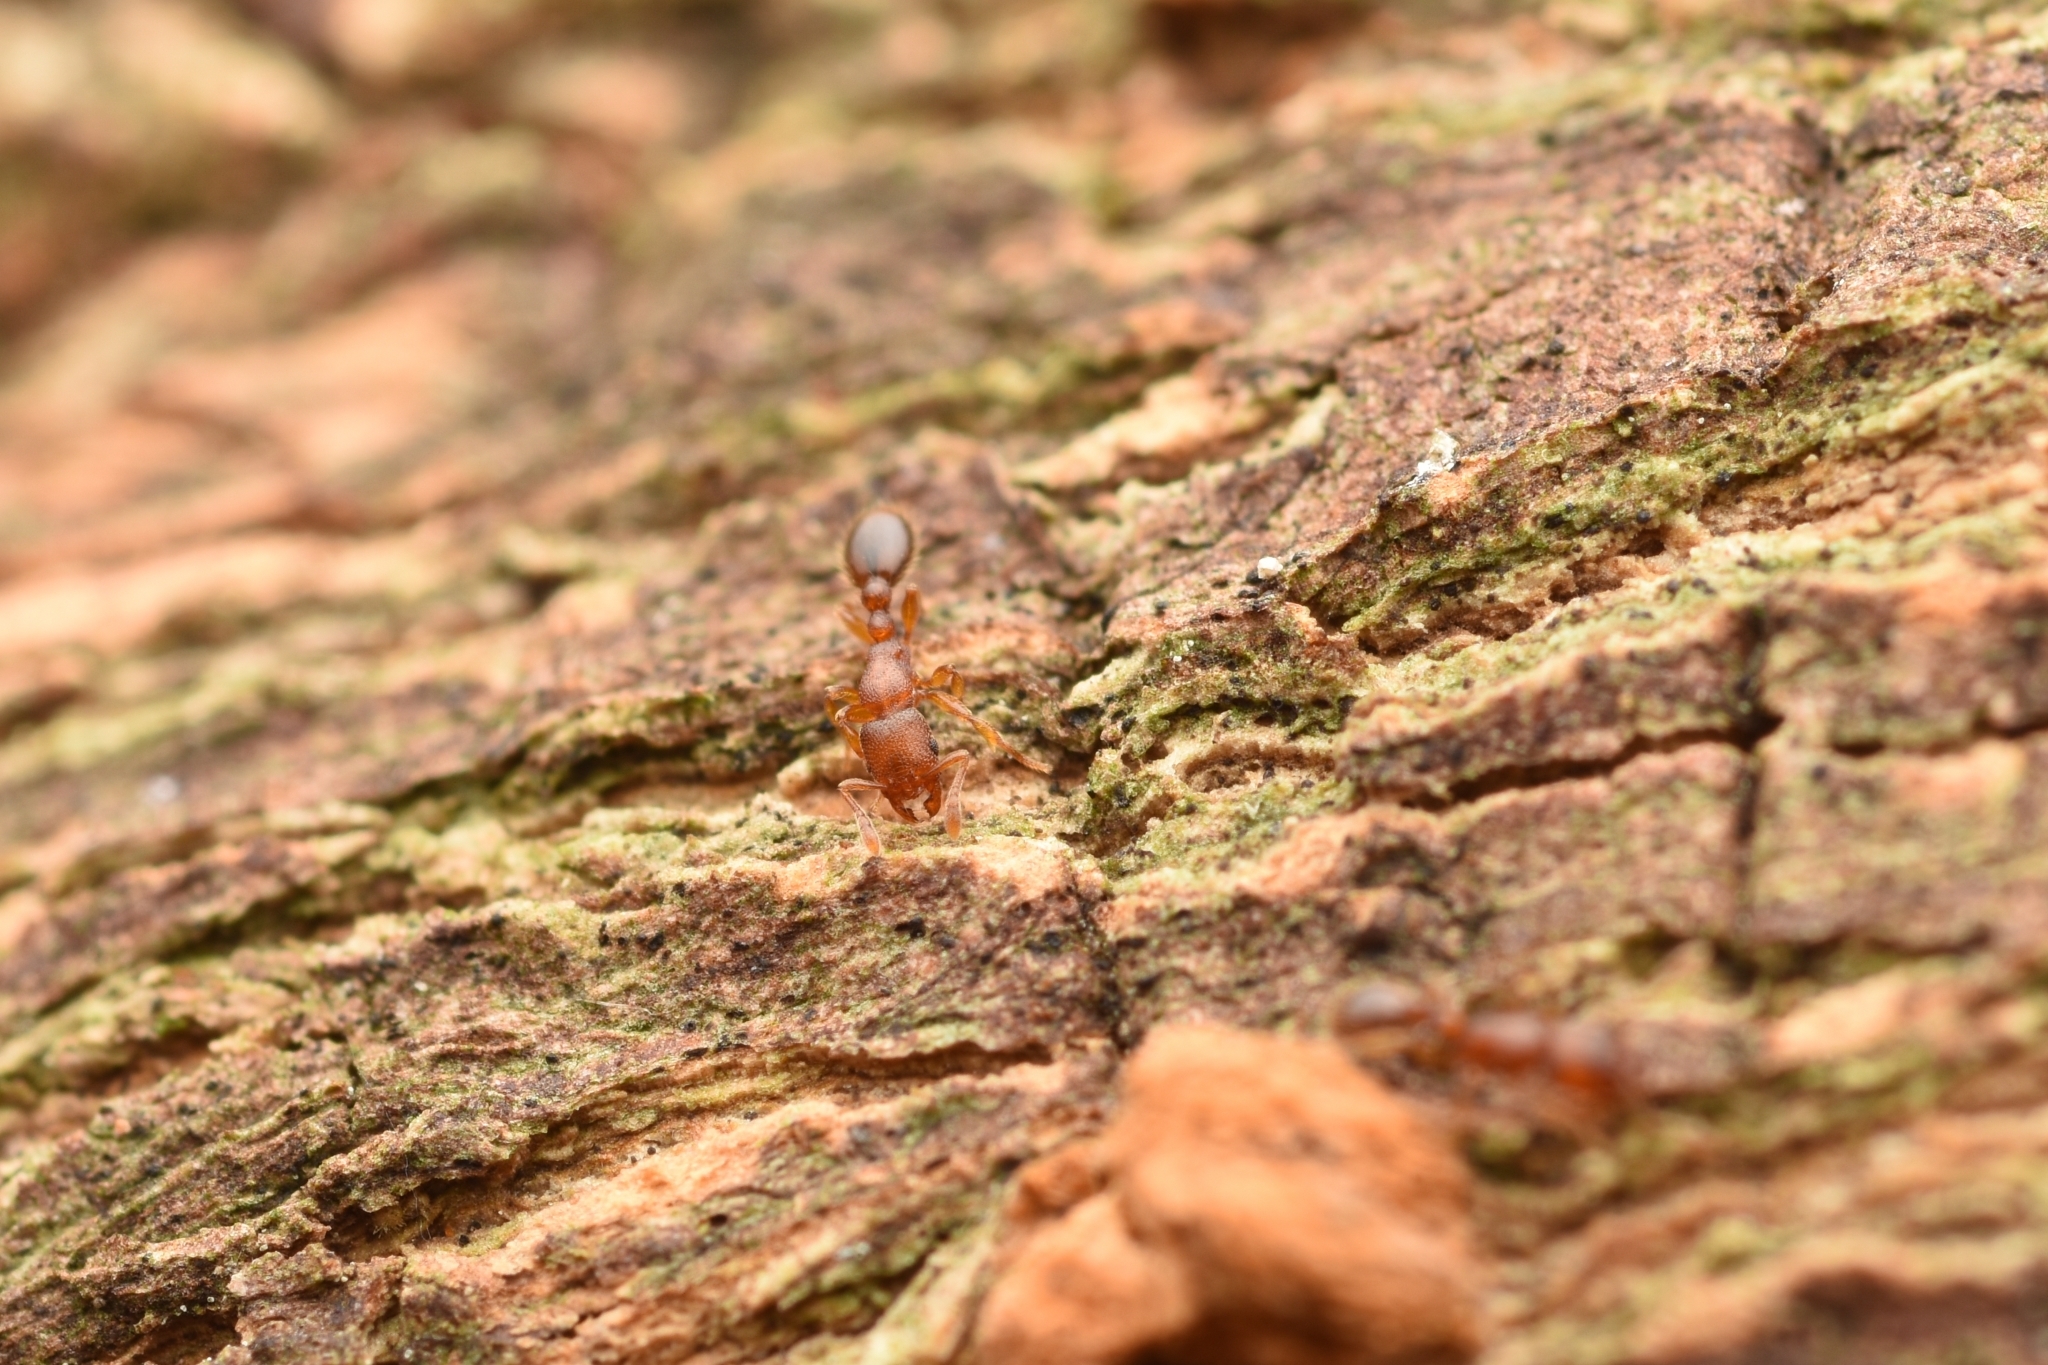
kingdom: Animalia
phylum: Arthropoda
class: Insecta
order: Hymenoptera
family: Formicidae
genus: Vollenhovia
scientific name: Vollenhovia emeryi
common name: Ant
